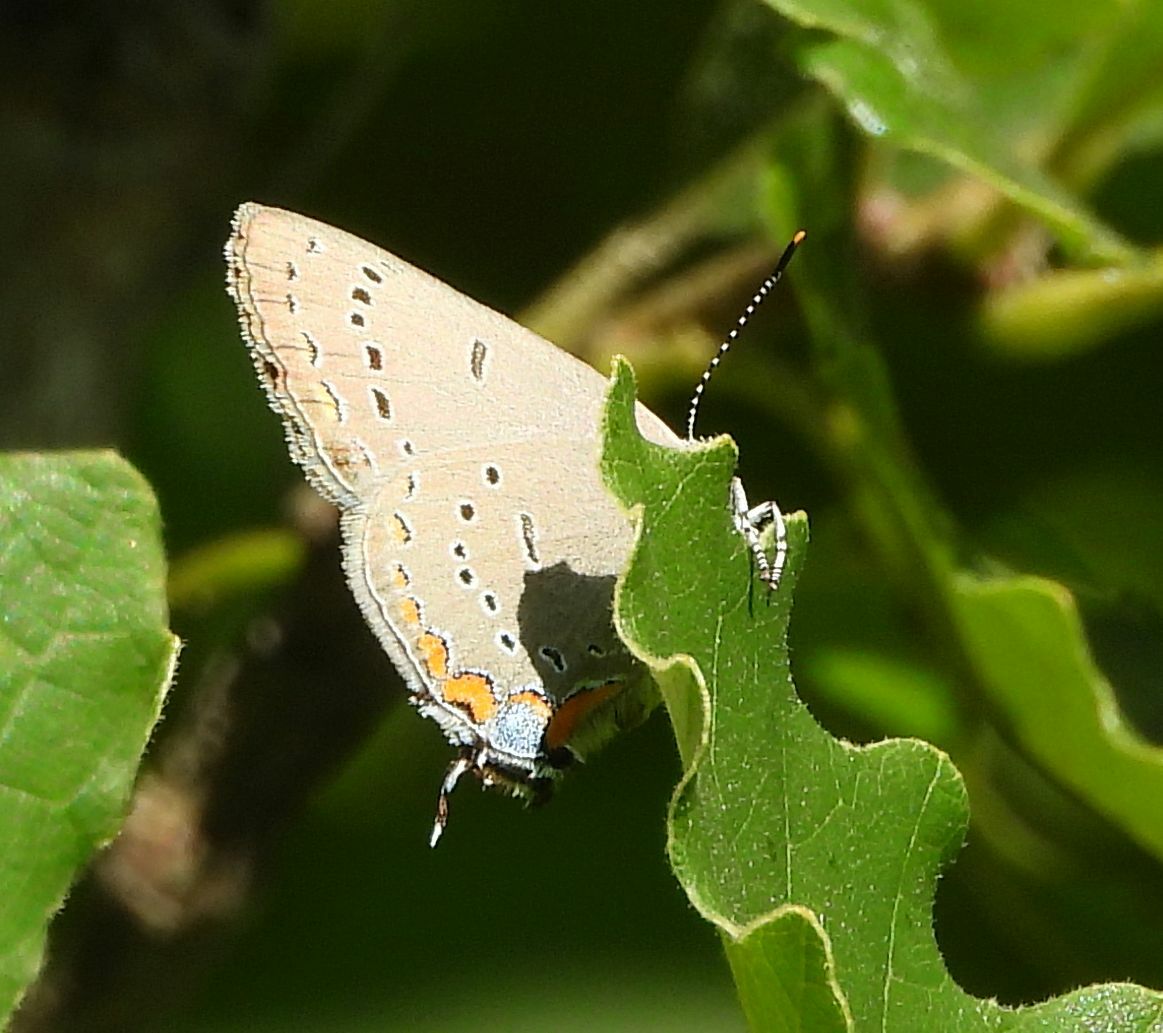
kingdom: Animalia
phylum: Arthropoda
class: Insecta
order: Lepidoptera
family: Lycaenidae
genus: Strymon
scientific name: Strymon acadica
